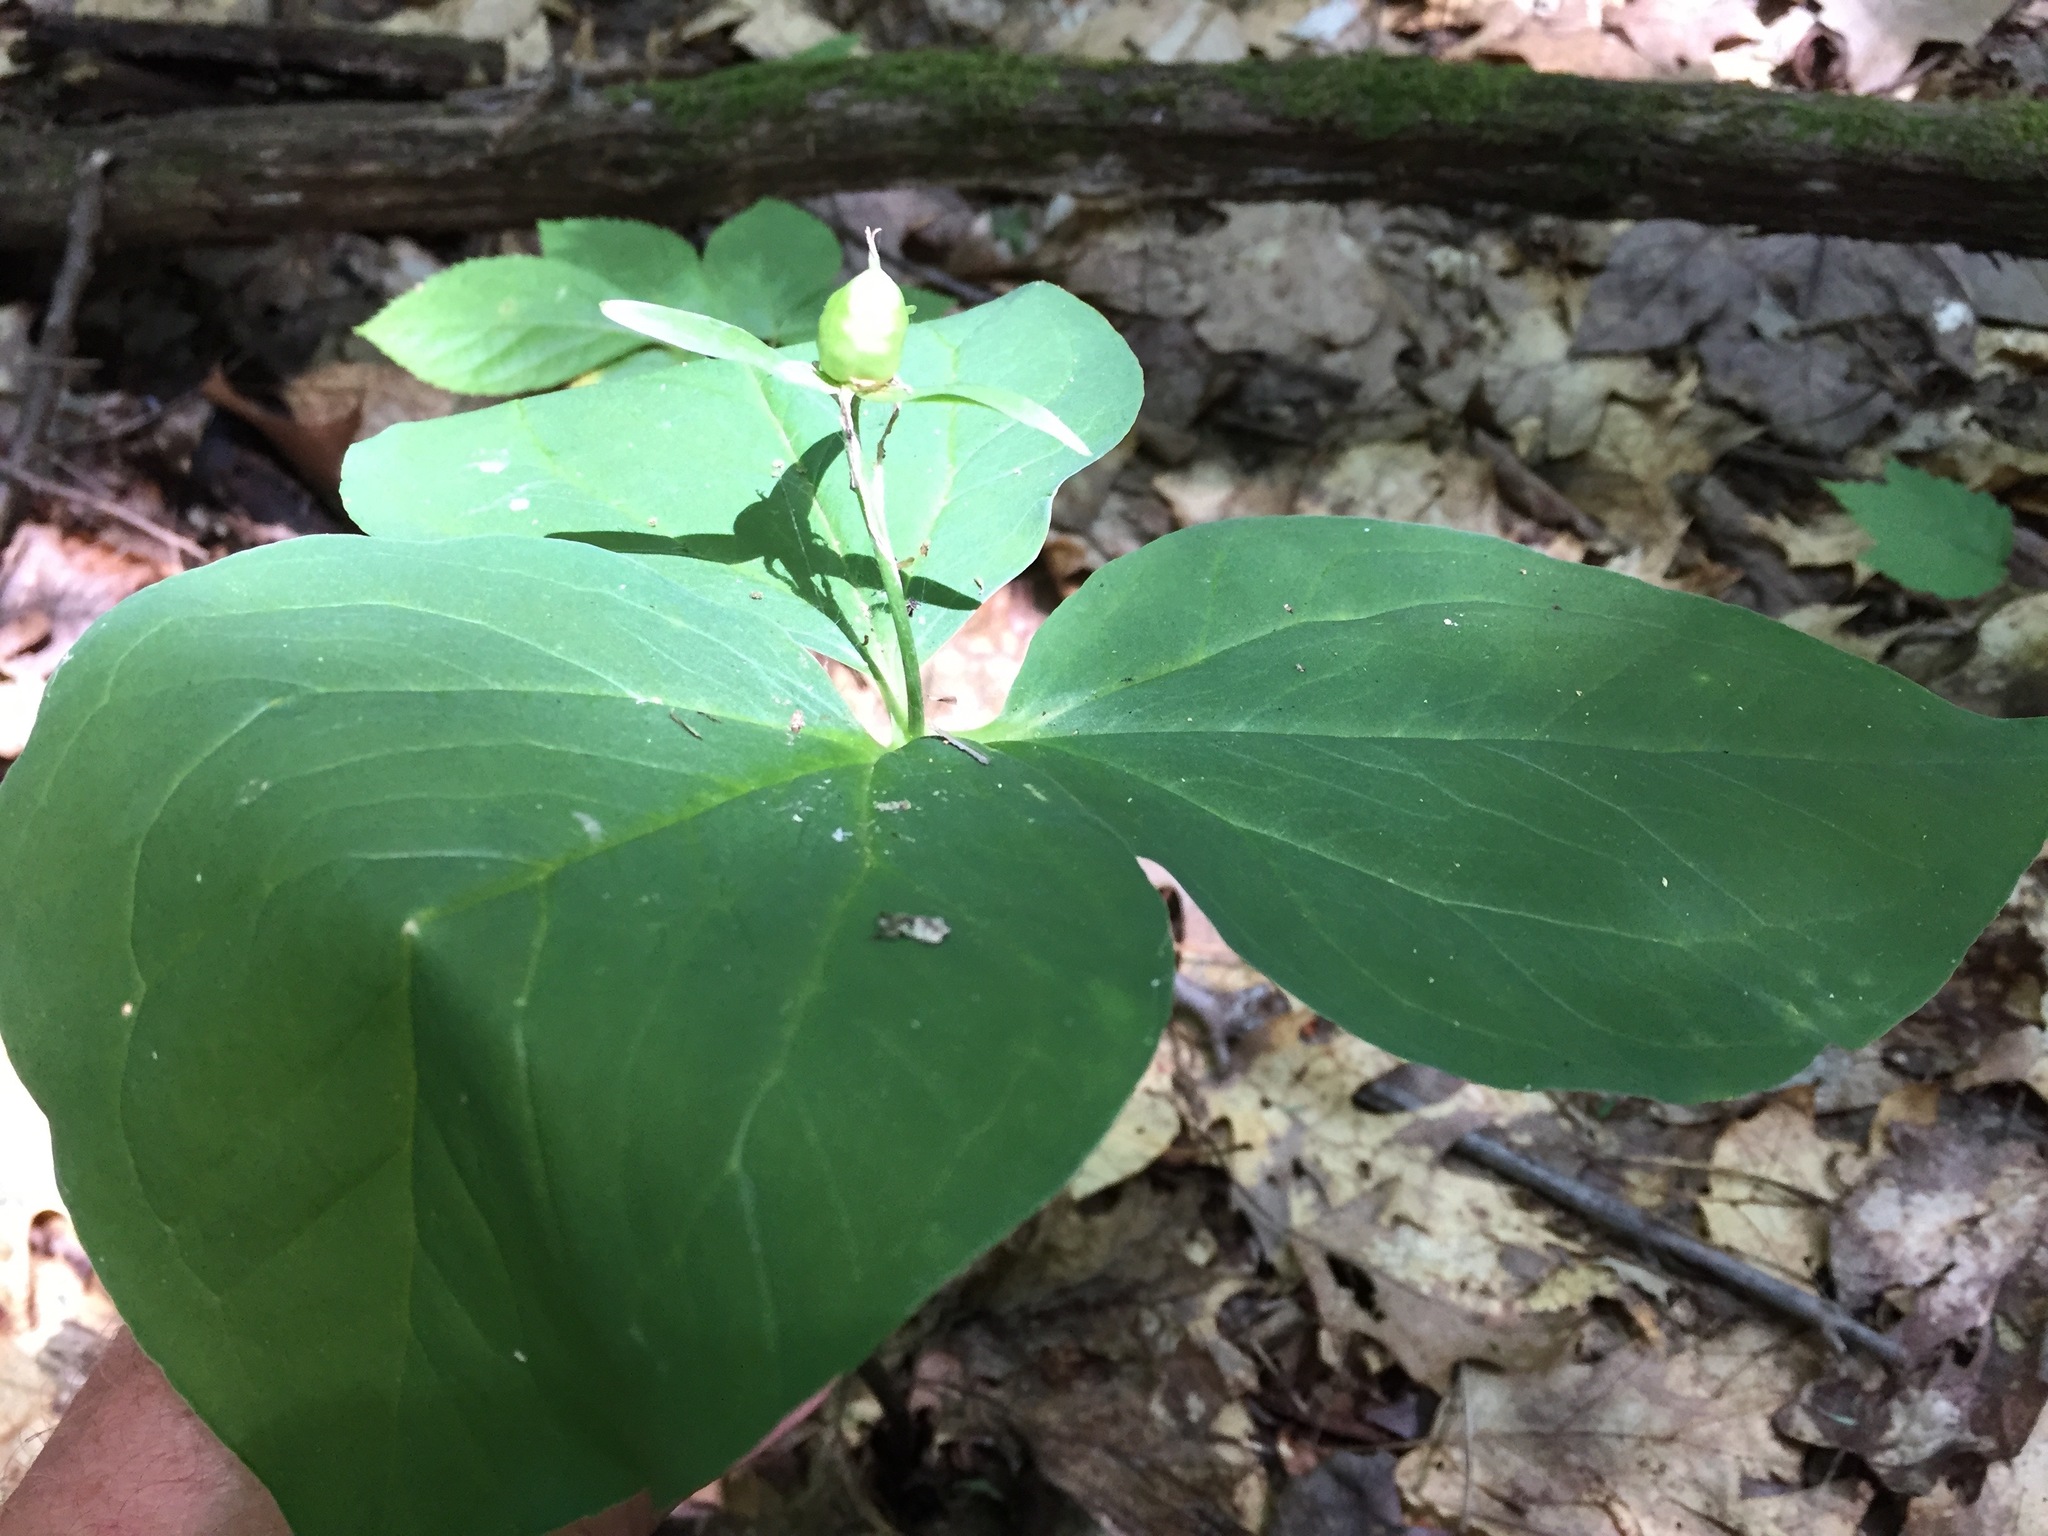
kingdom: Plantae
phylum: Tracheophyta
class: Liliopsida
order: Liliales
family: Melanthiaceae
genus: Trillium
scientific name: Trillium undulatum
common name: Paint trillium
